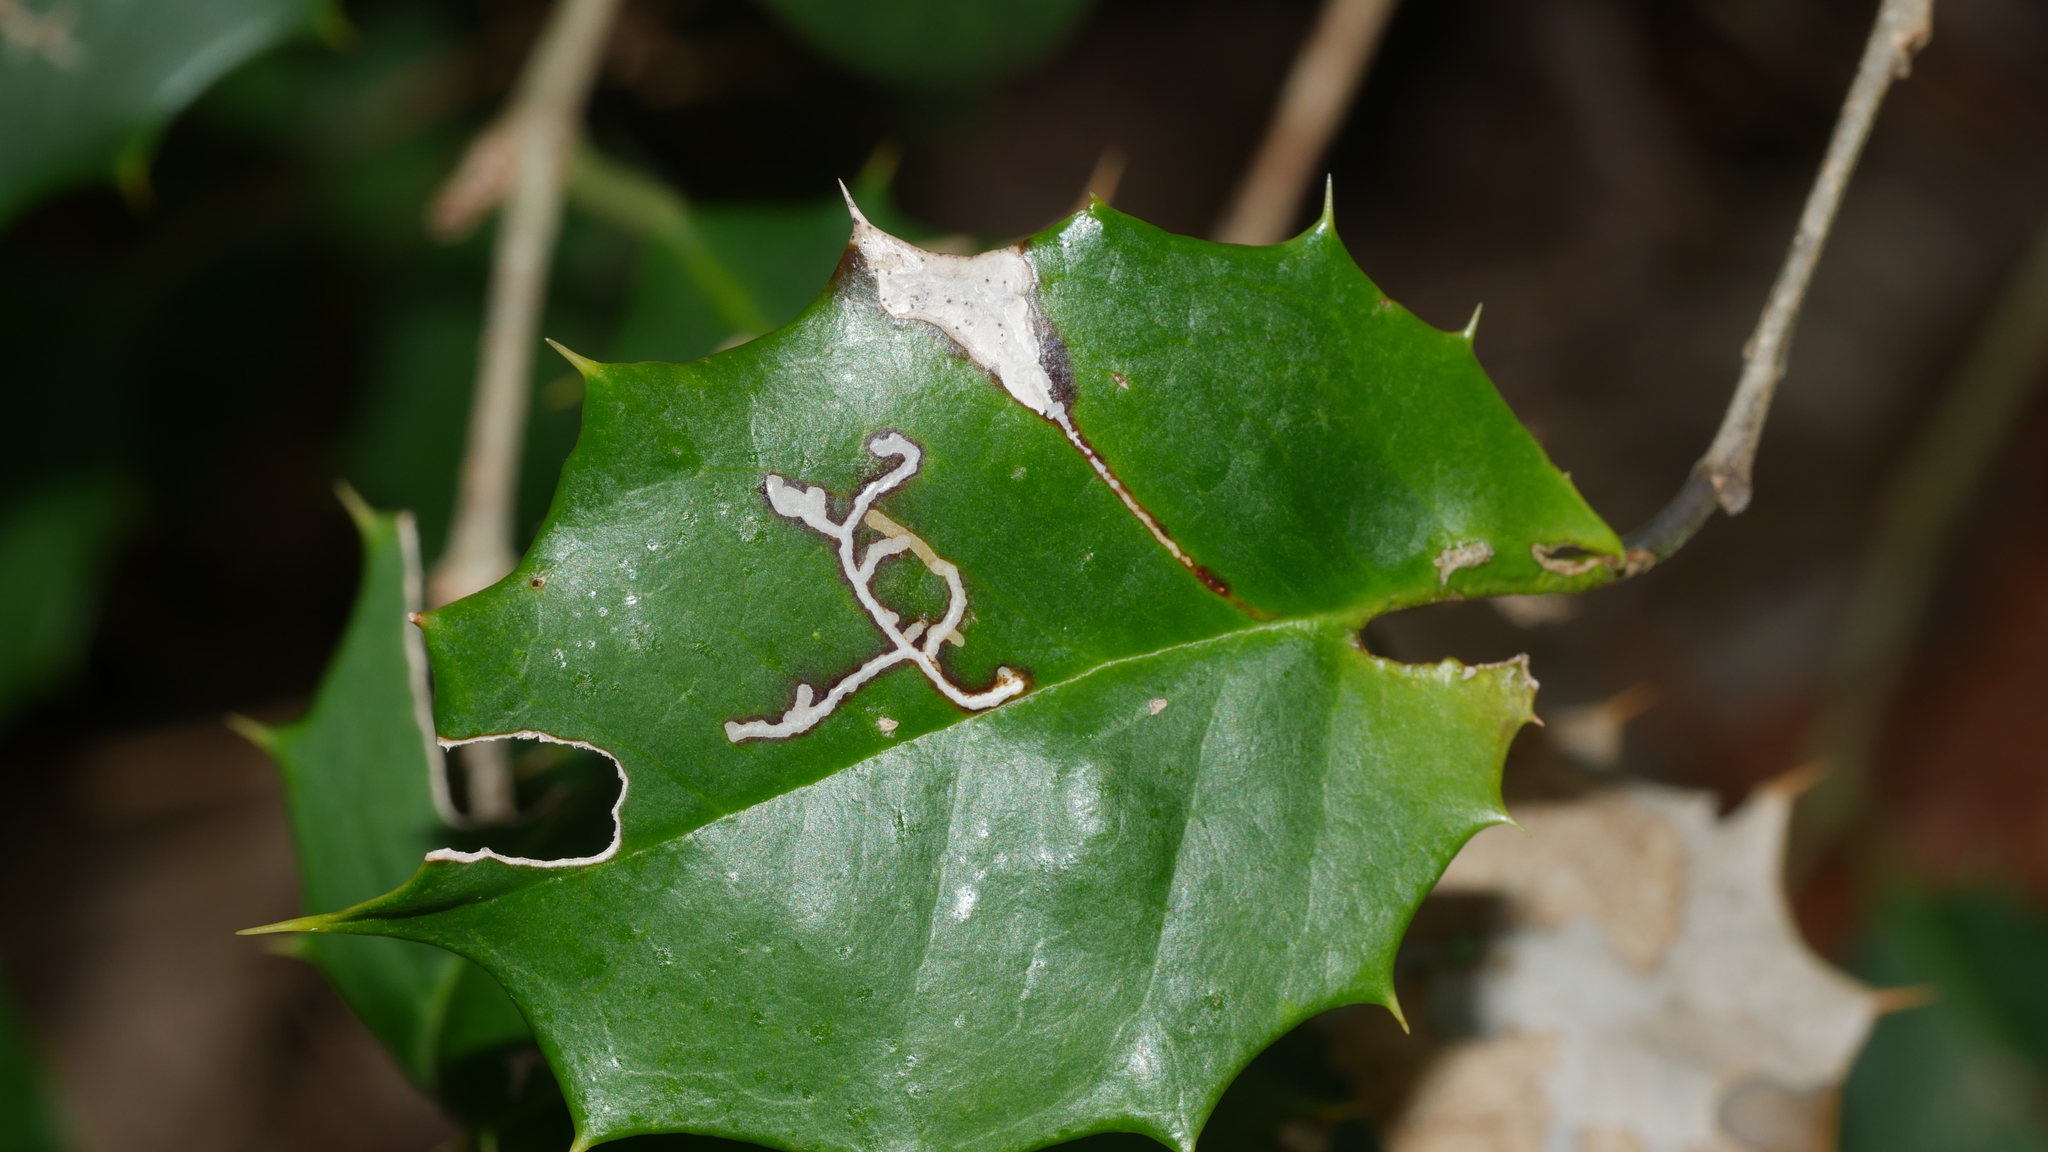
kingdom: Animalia
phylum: Arthropoda
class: Insecta
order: Lepidoptera
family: Tortricidae
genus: Rhopobota
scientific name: Rhopobota
